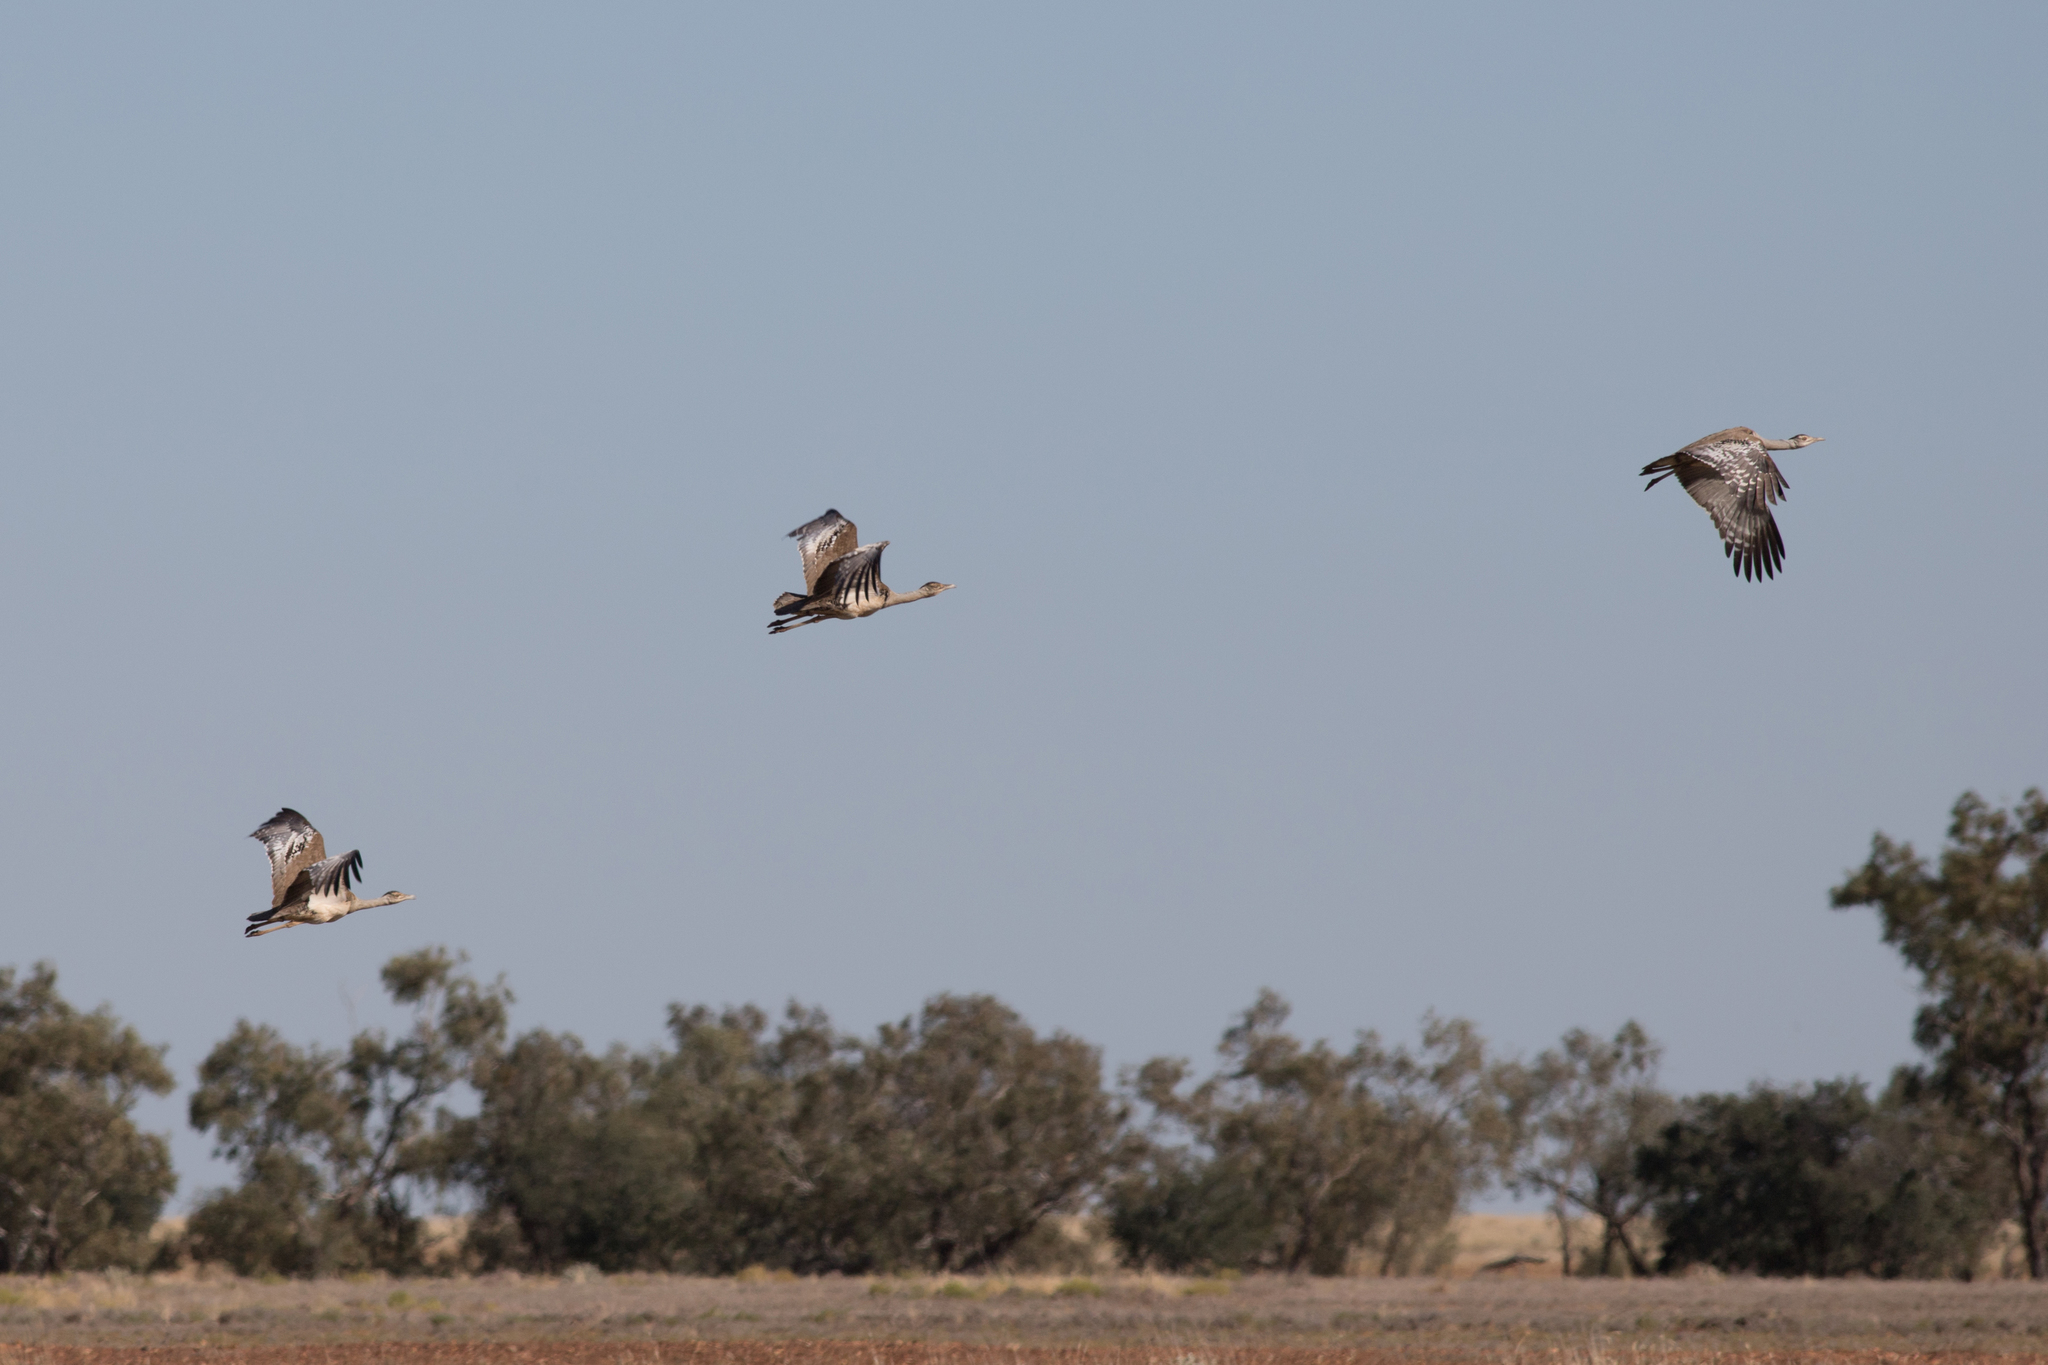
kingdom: Animalia
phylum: Chordata
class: Aves
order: Otidiformes
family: Otididae
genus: Ardeotis
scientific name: Ardeotis australis
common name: Australian bustard
